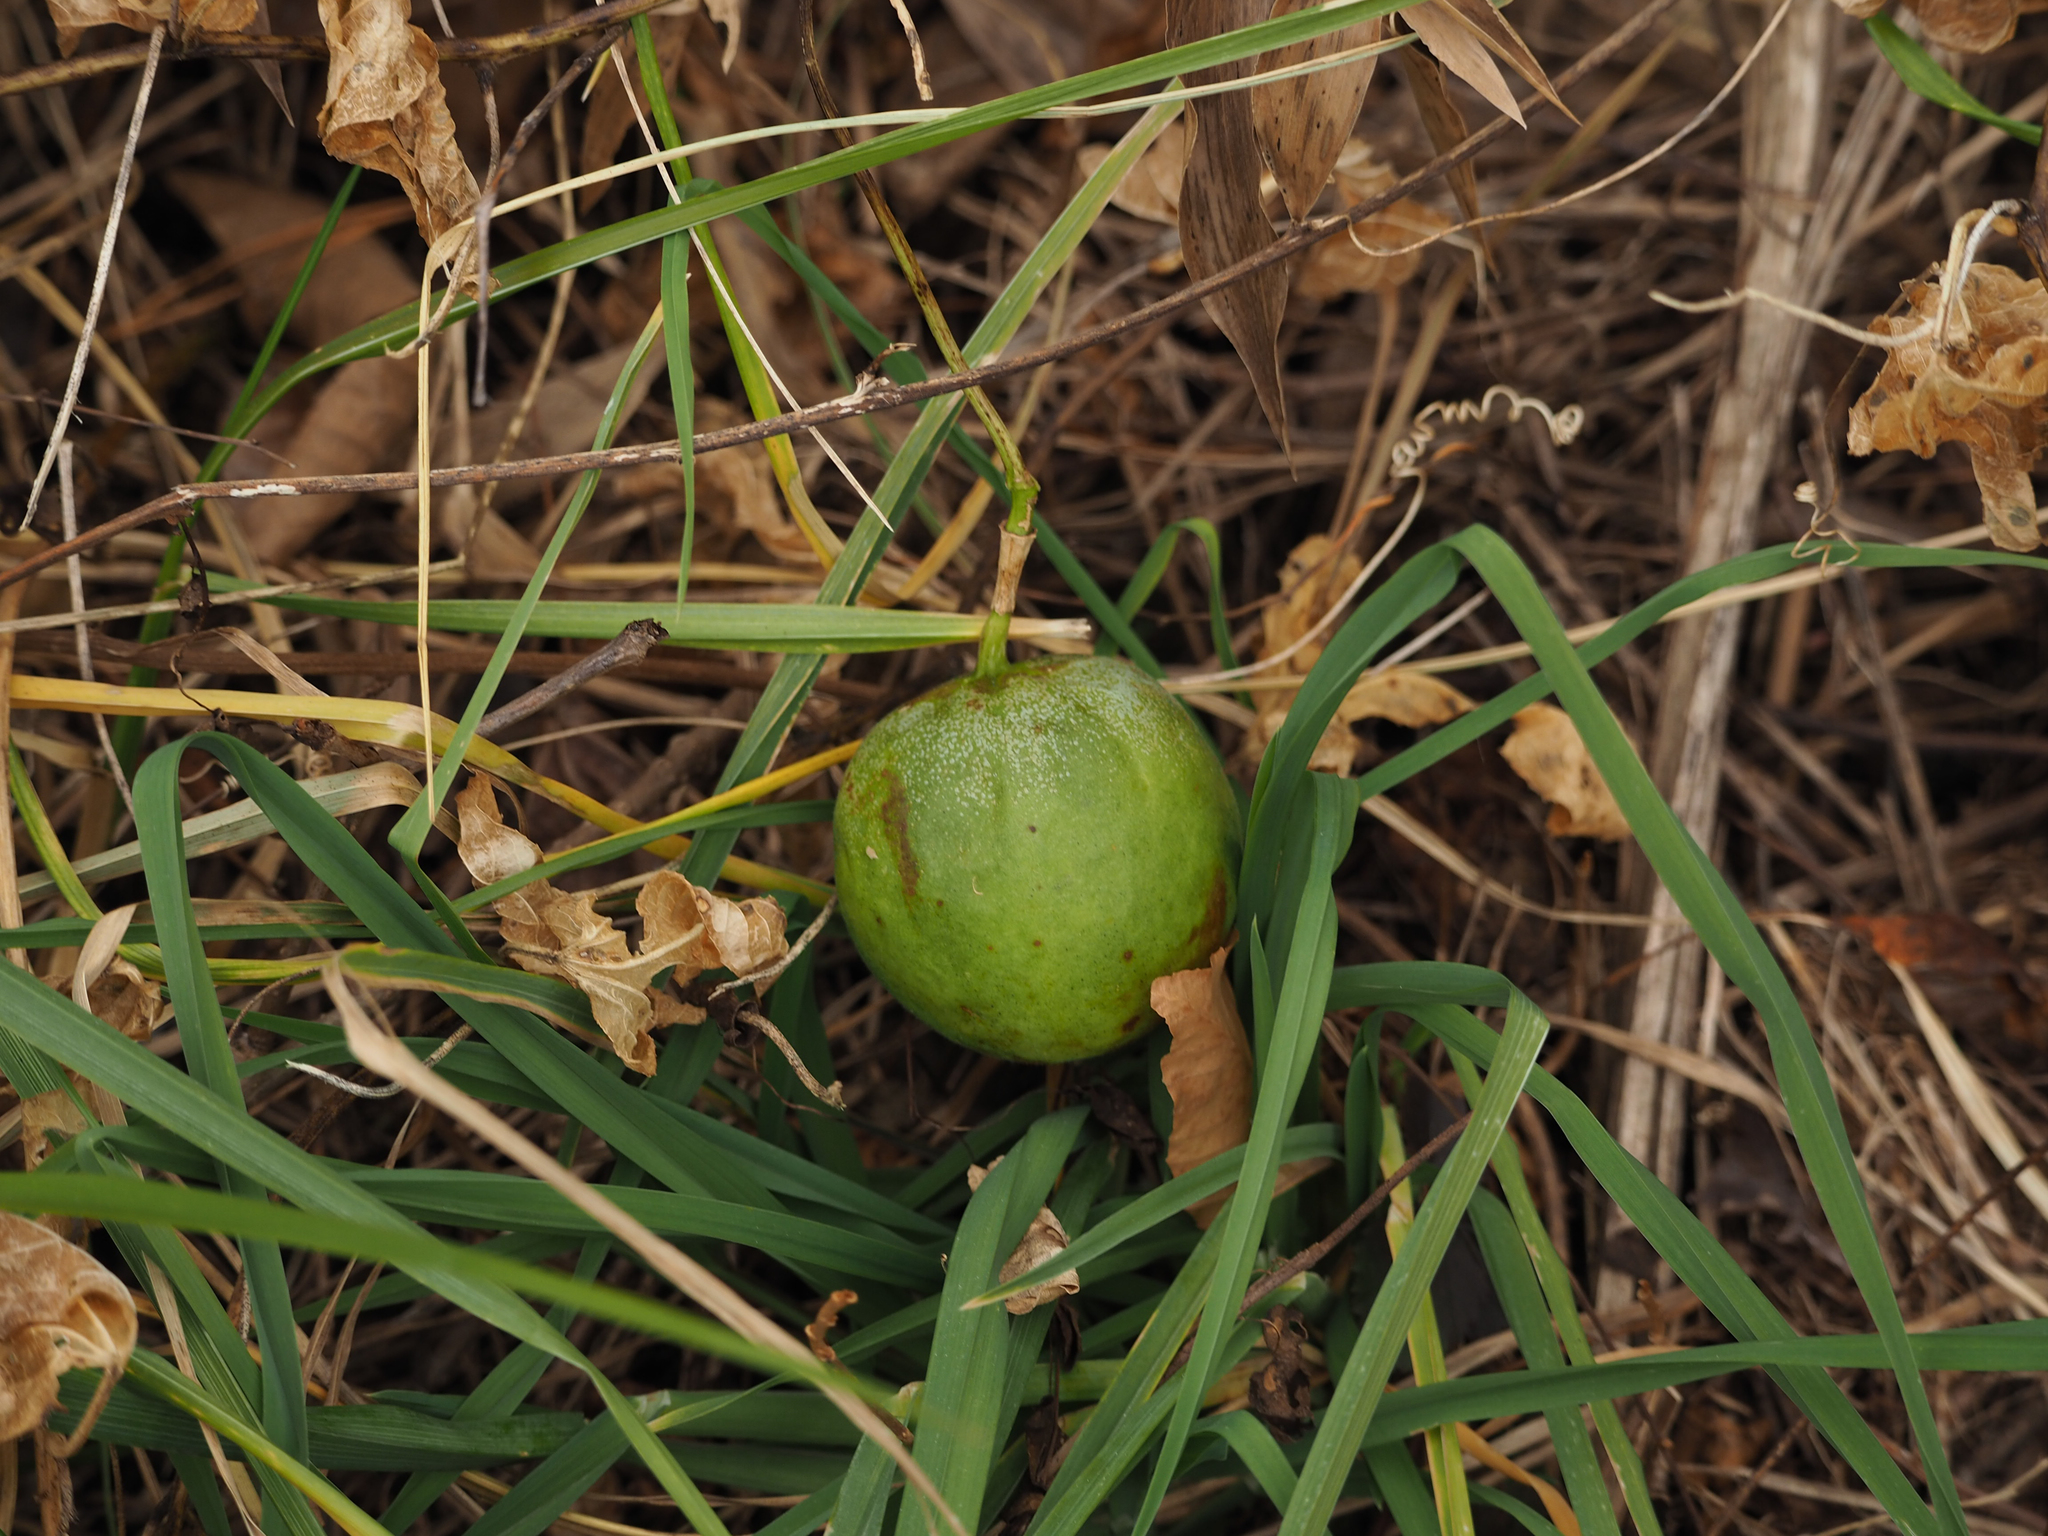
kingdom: Plantae
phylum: Tracheophyta
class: Magnoliopsida
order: Malpighiales
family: Passifloraceae
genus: Passiflora
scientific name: Passiflora incarnata
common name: Apricot-vine
